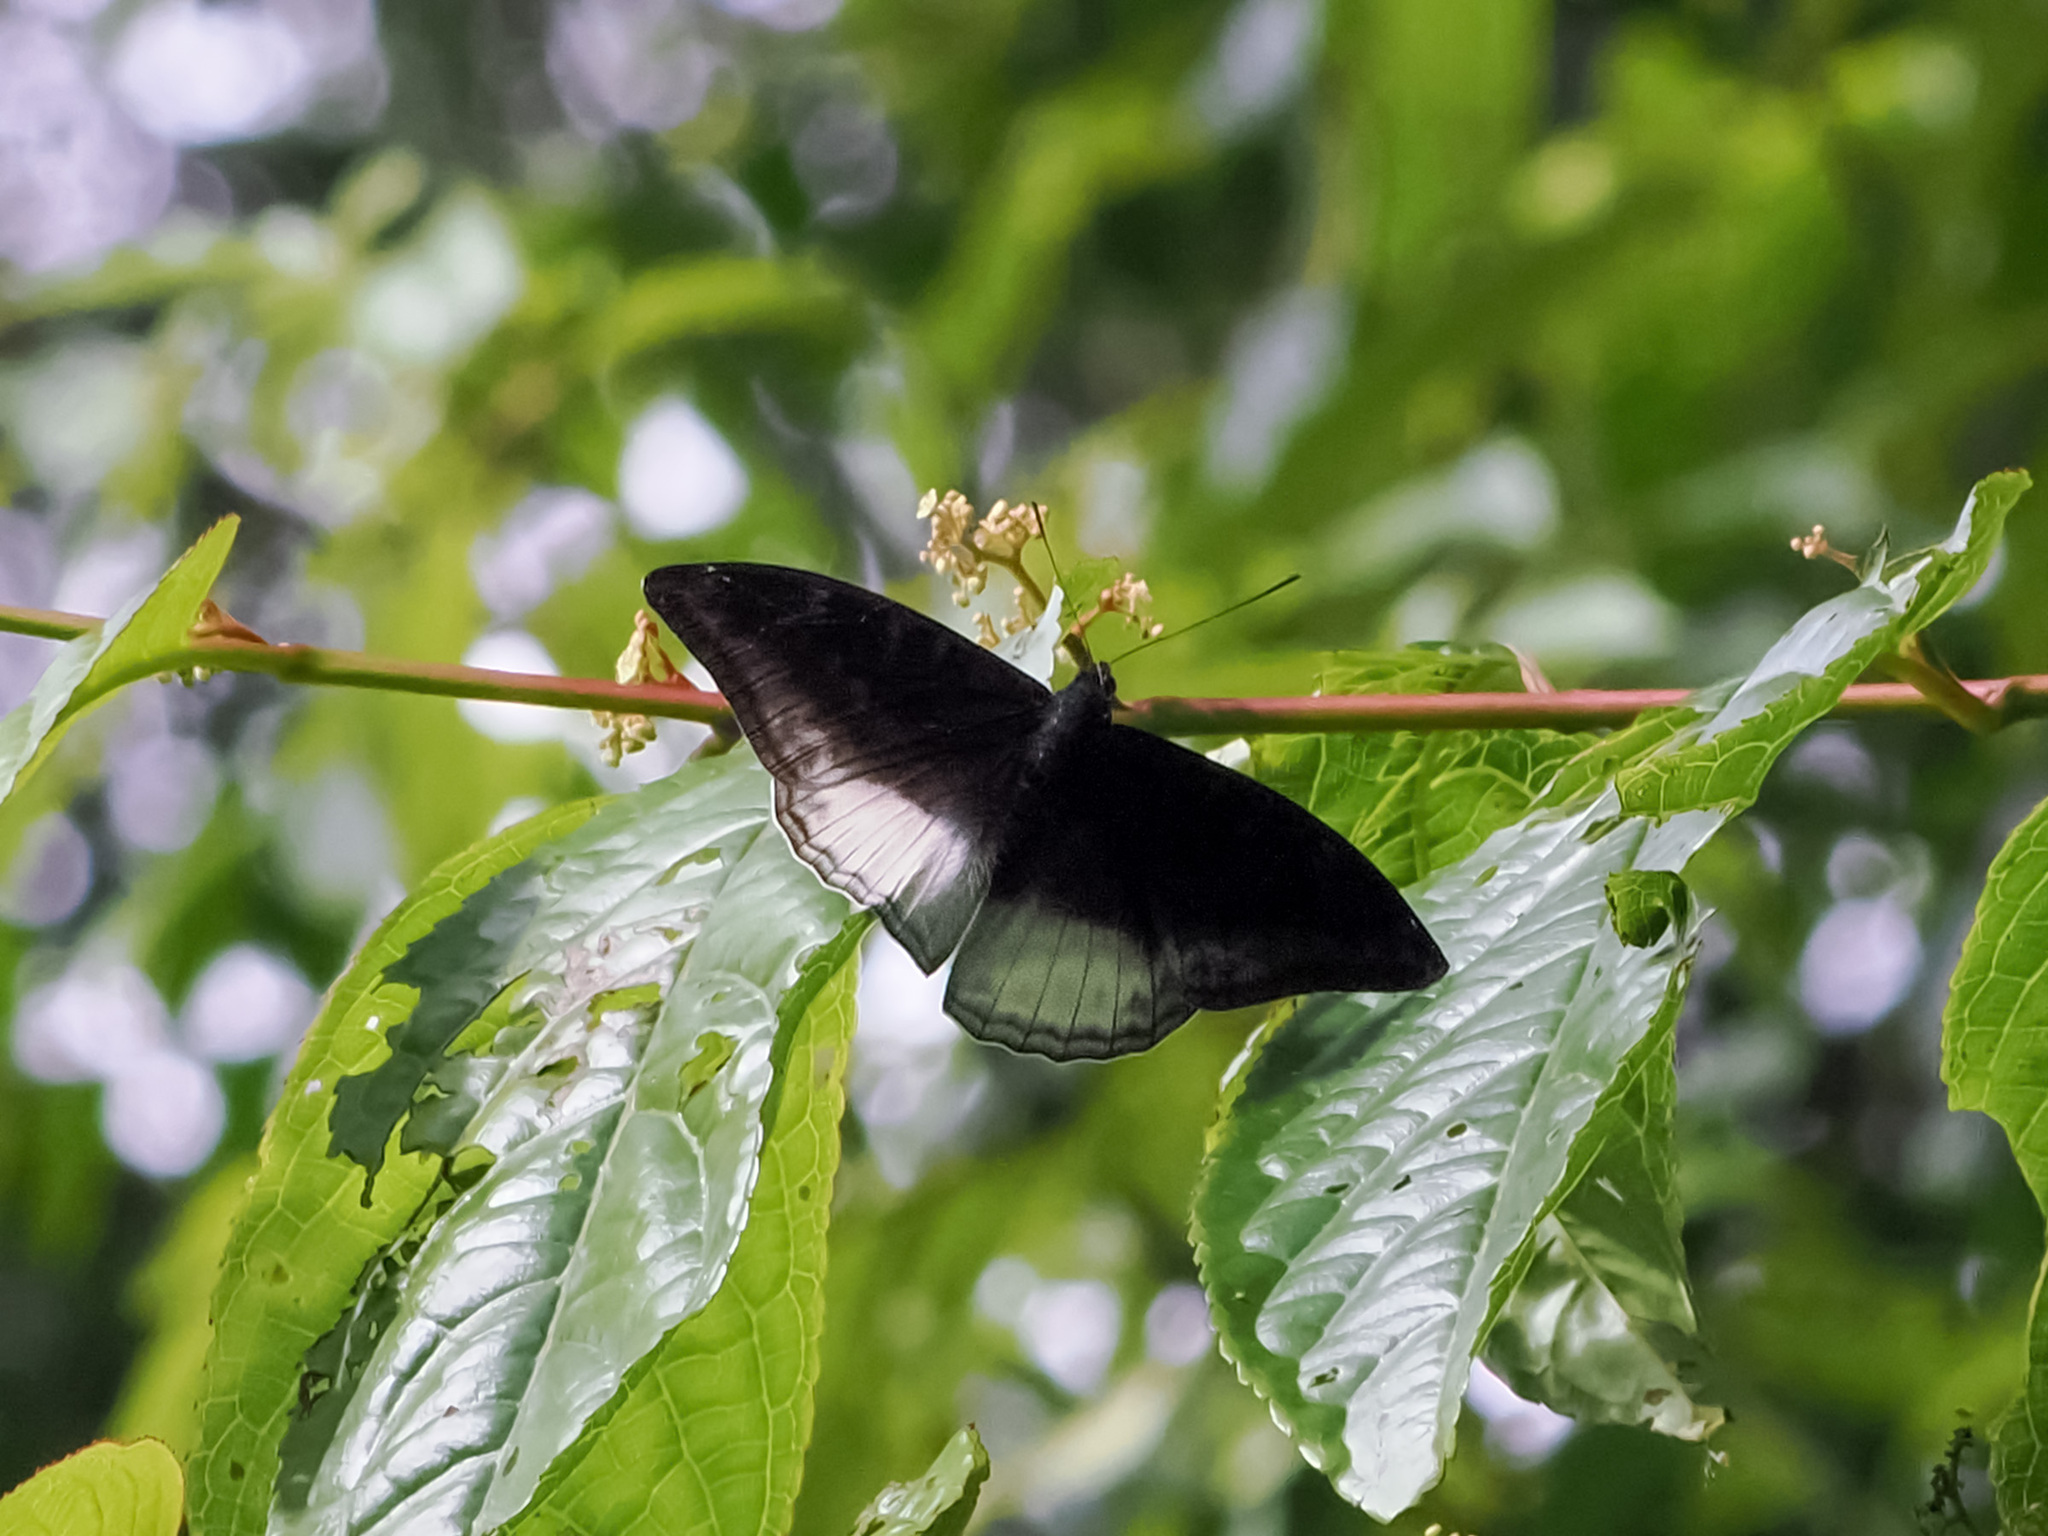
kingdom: Animalia
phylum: Arthropoda
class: Insecta
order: Lepidoptera
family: Nymphalidae
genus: Limenitis
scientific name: Limenitis Auzakia danava
